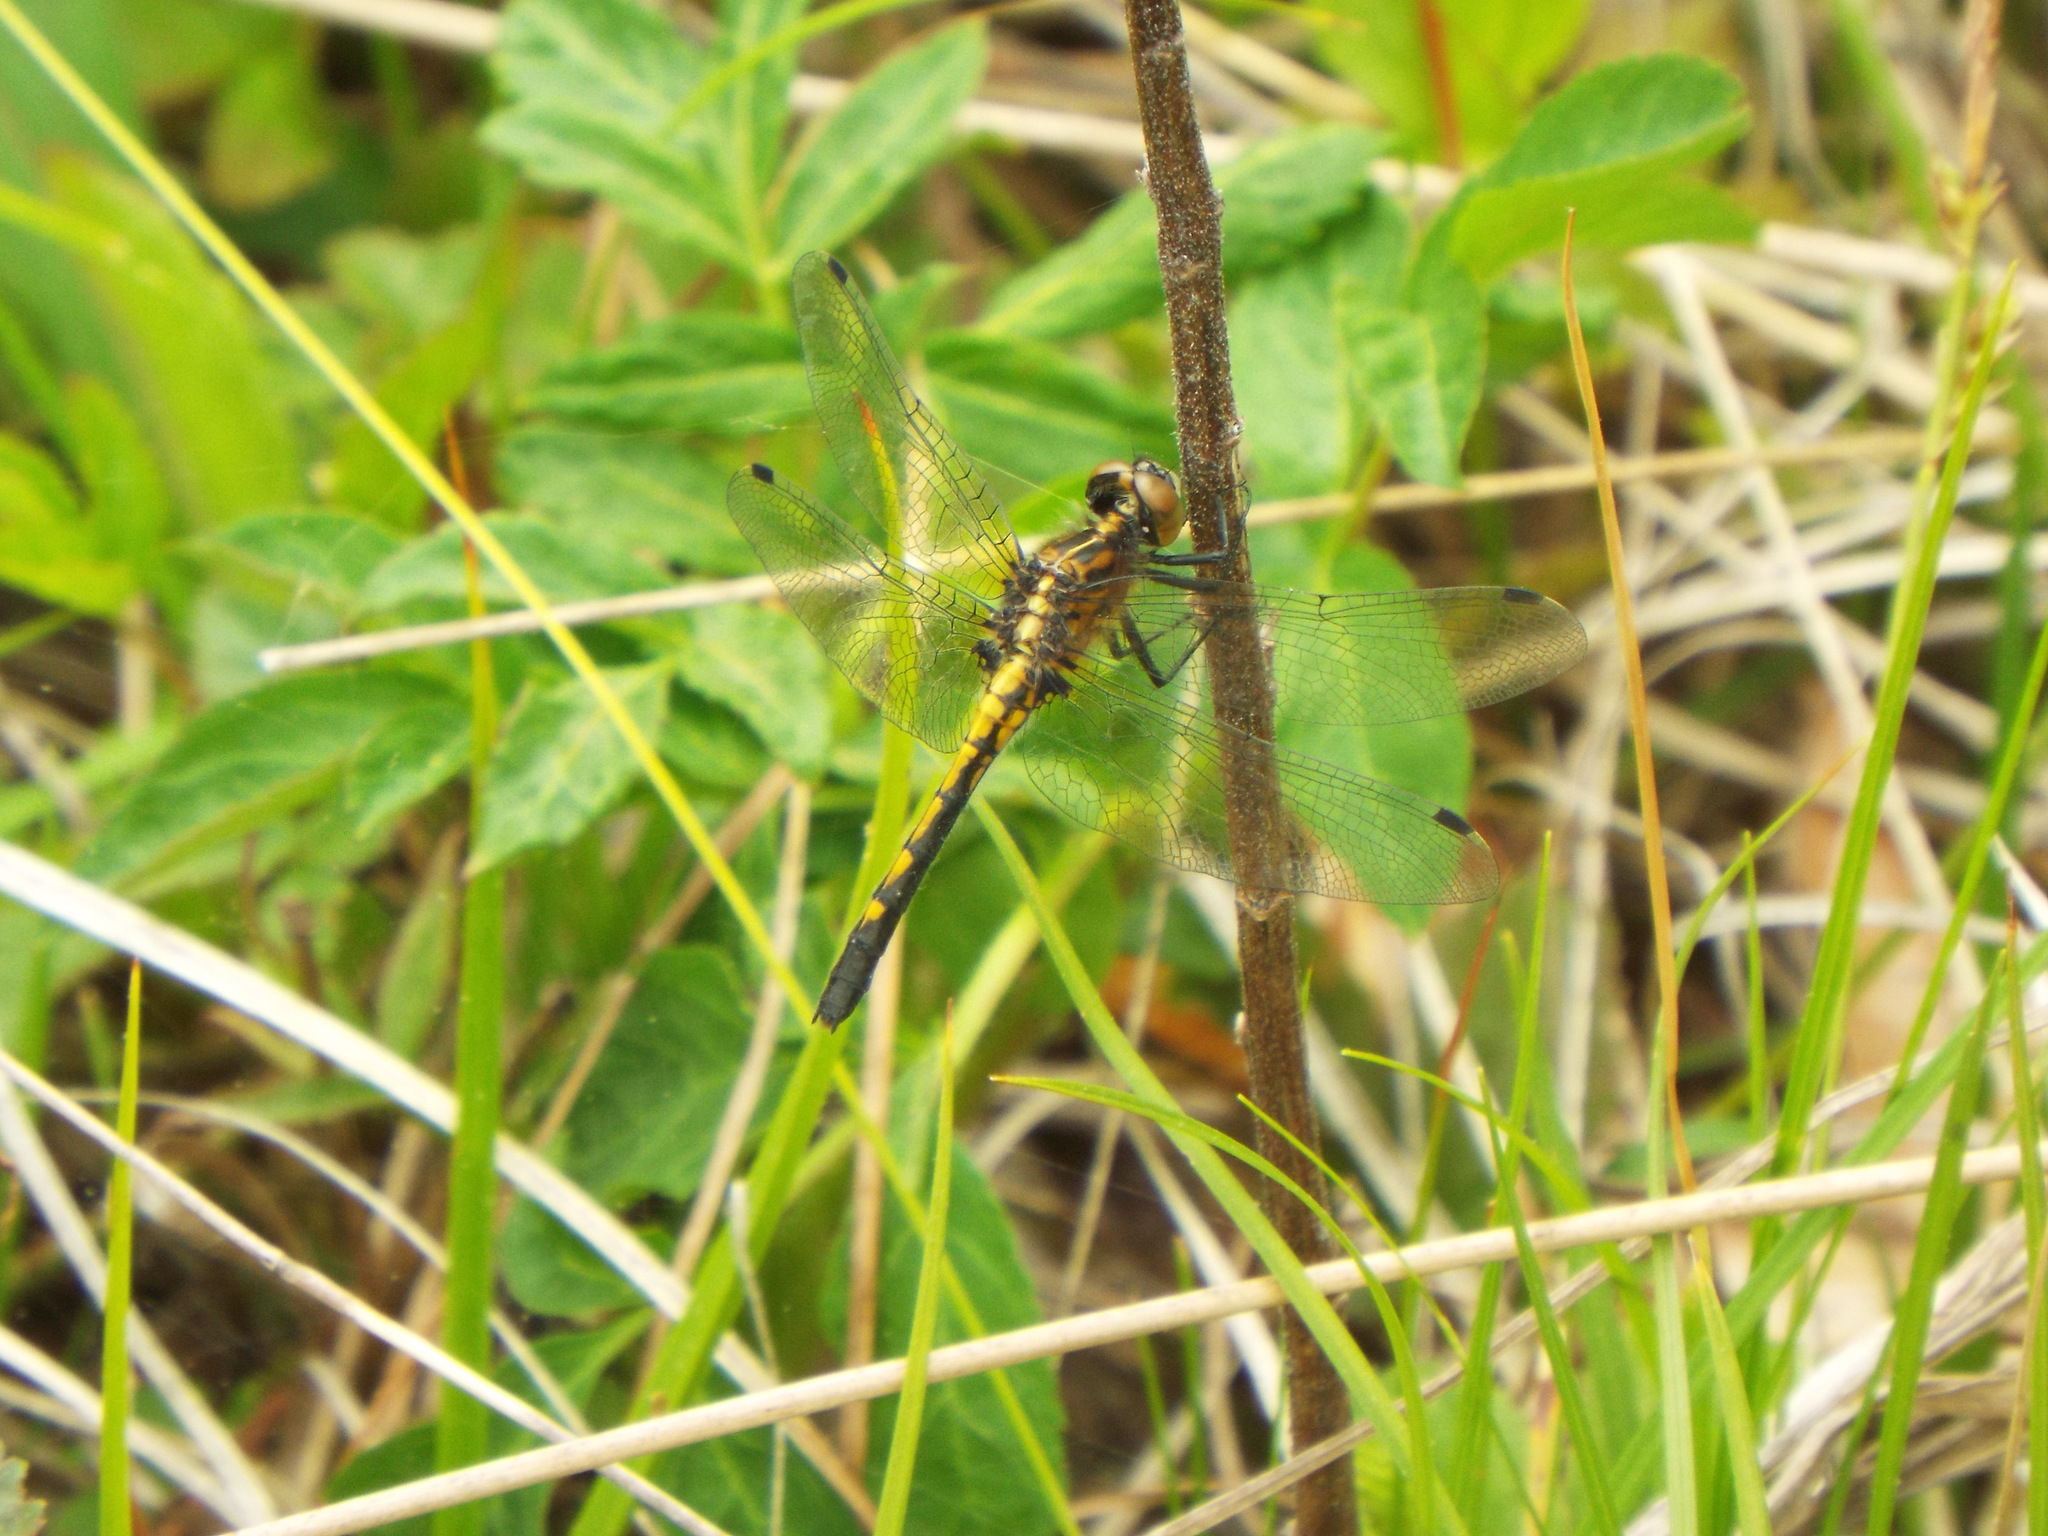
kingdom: Animalia
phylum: Arthropoda
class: Insecta
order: Odonata
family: Libellulidae
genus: Leucorrhinia
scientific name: Leucorrhinia intacta
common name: Dot-tailed whiteface
